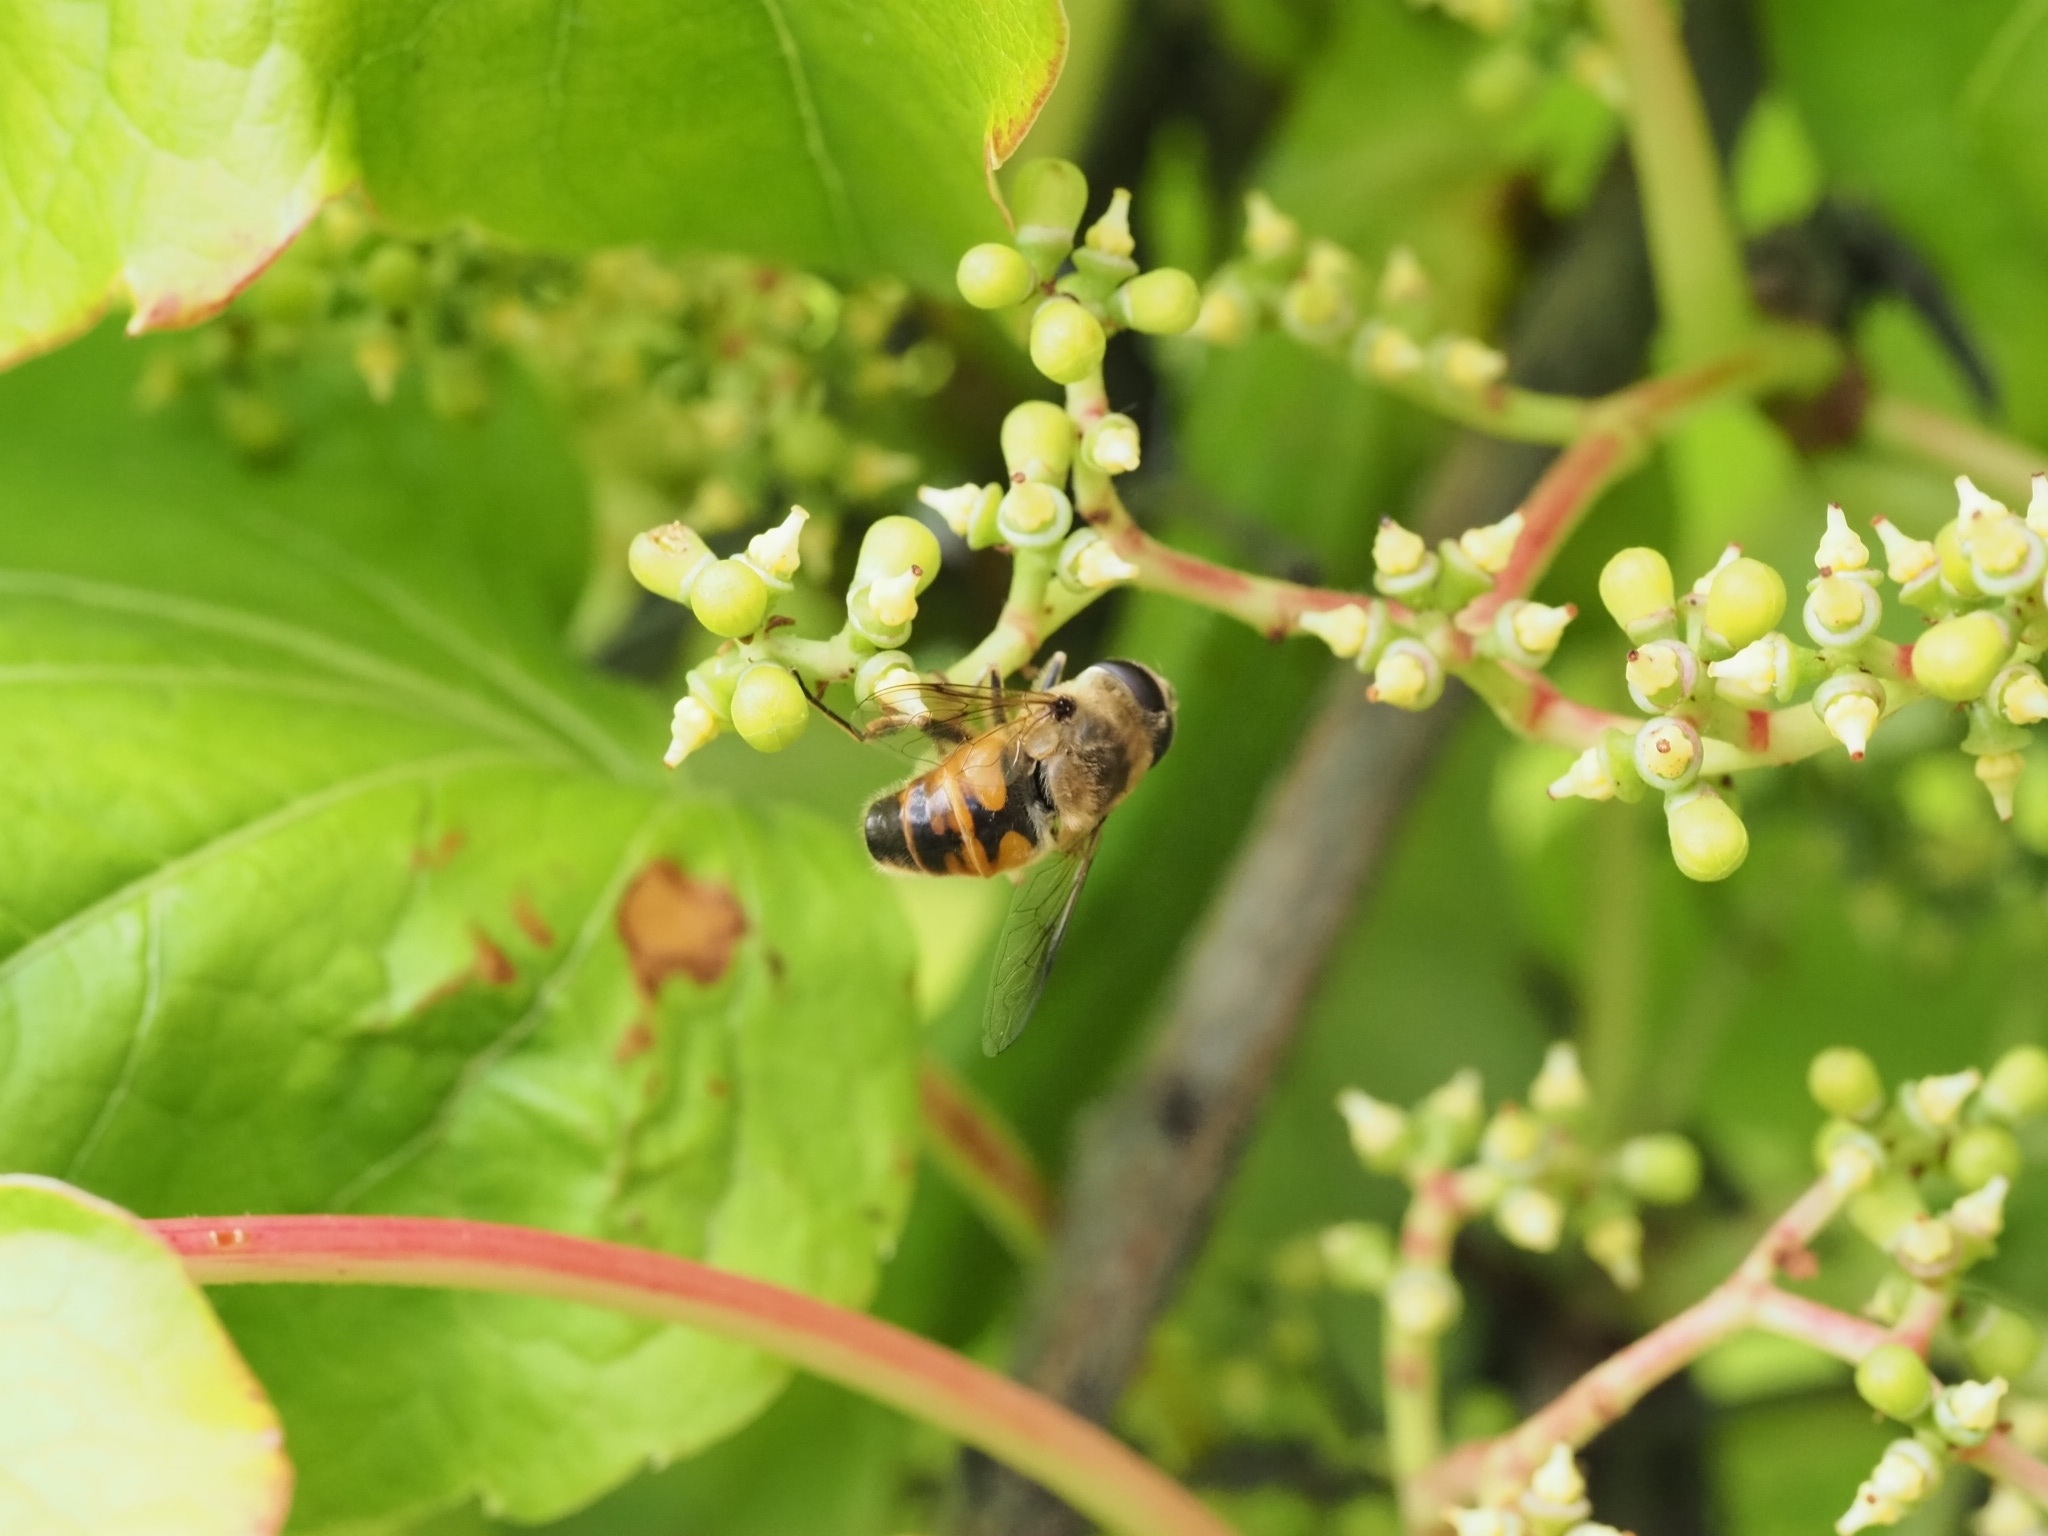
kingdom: Animalia
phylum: Arthropoda
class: Insecta
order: Diptera
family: Syrphidae
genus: Eristalis
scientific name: Eristalis tenax
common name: Drone fly
